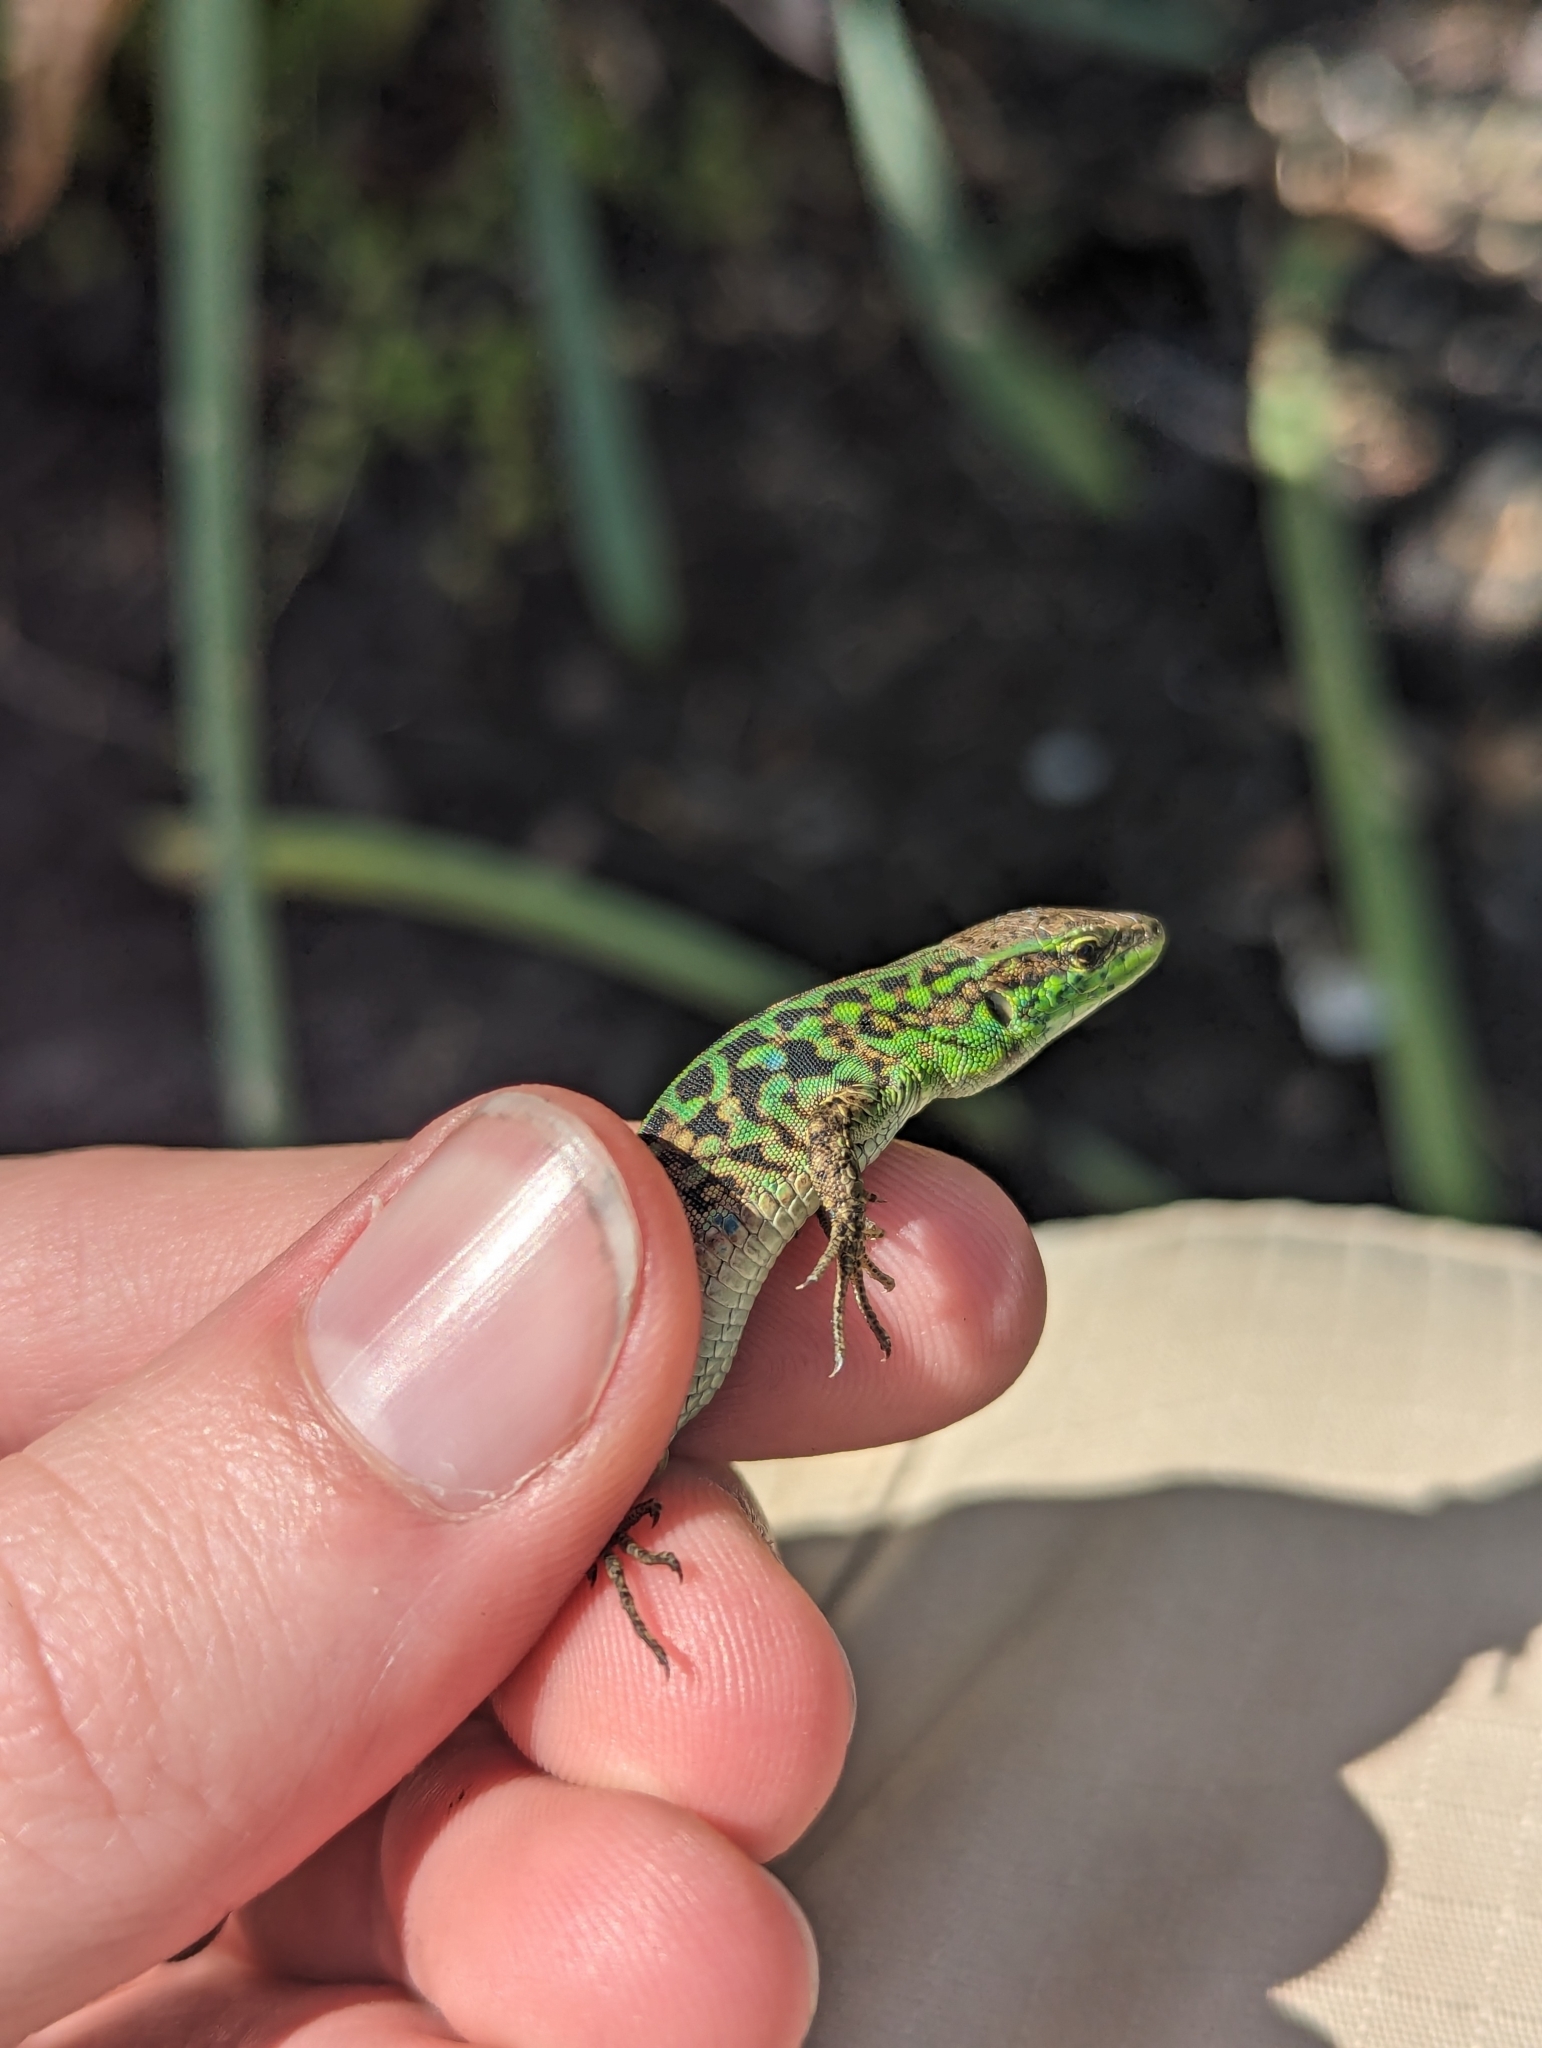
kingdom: Animalia
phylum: Chordata
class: Squamata
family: Lacertidae
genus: Podarcis
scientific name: Podarcis siculus
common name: Italian wall lizard
